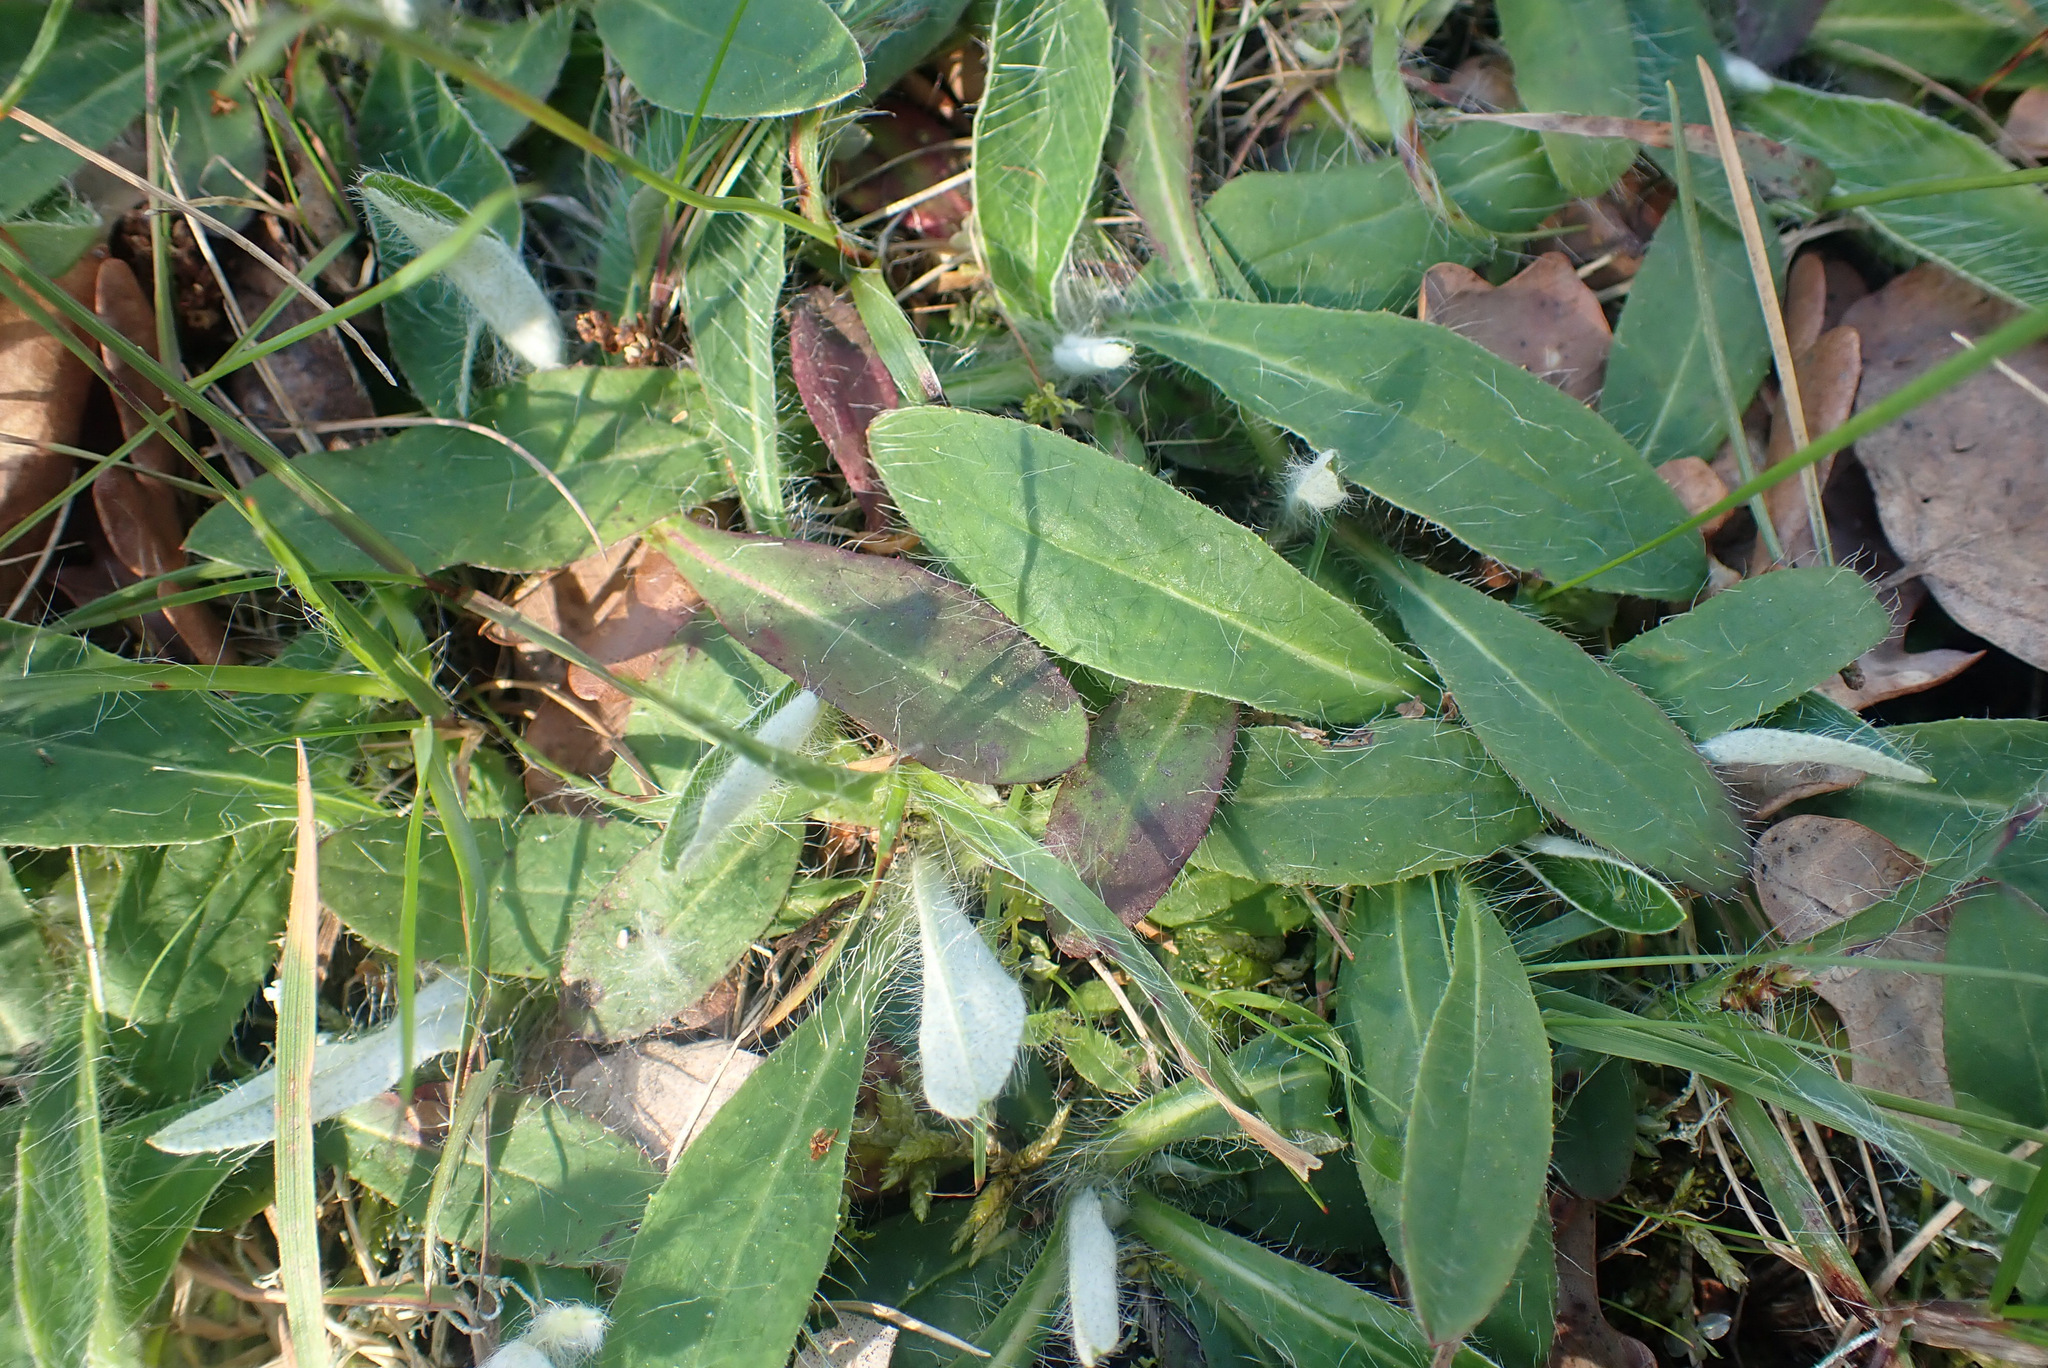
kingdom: Plantae
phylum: Tracheophyta
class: Magnoliopsida
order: Asterales
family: Asteraceae
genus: Pilosella
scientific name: Pilosella officinarum
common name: Mouse-ear hawkweed
